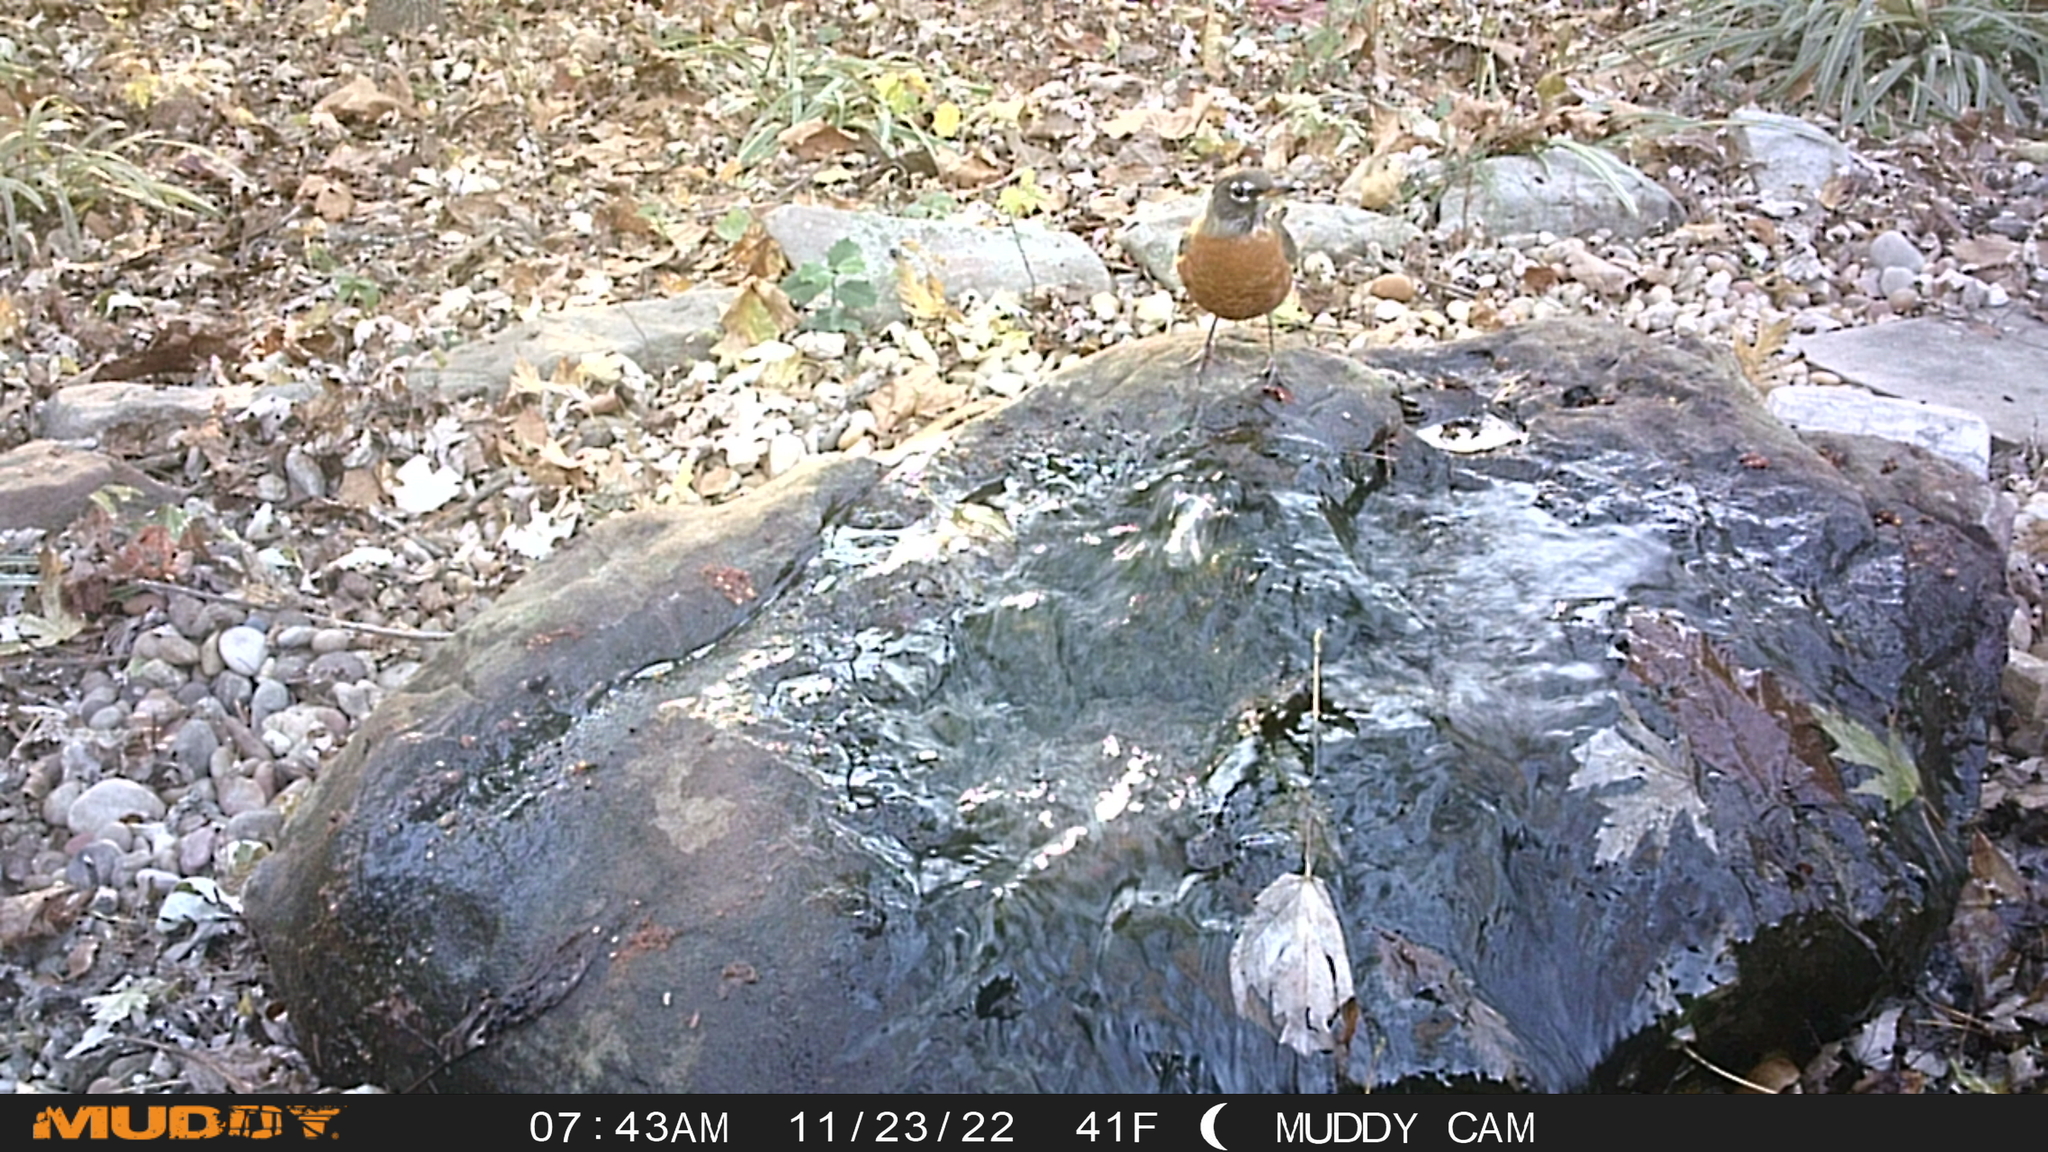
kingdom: Animalia
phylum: Chordata
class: Aves
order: Passeriformes
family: Turdidae
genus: Turdus
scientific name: Turdus migratorius
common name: American robin
